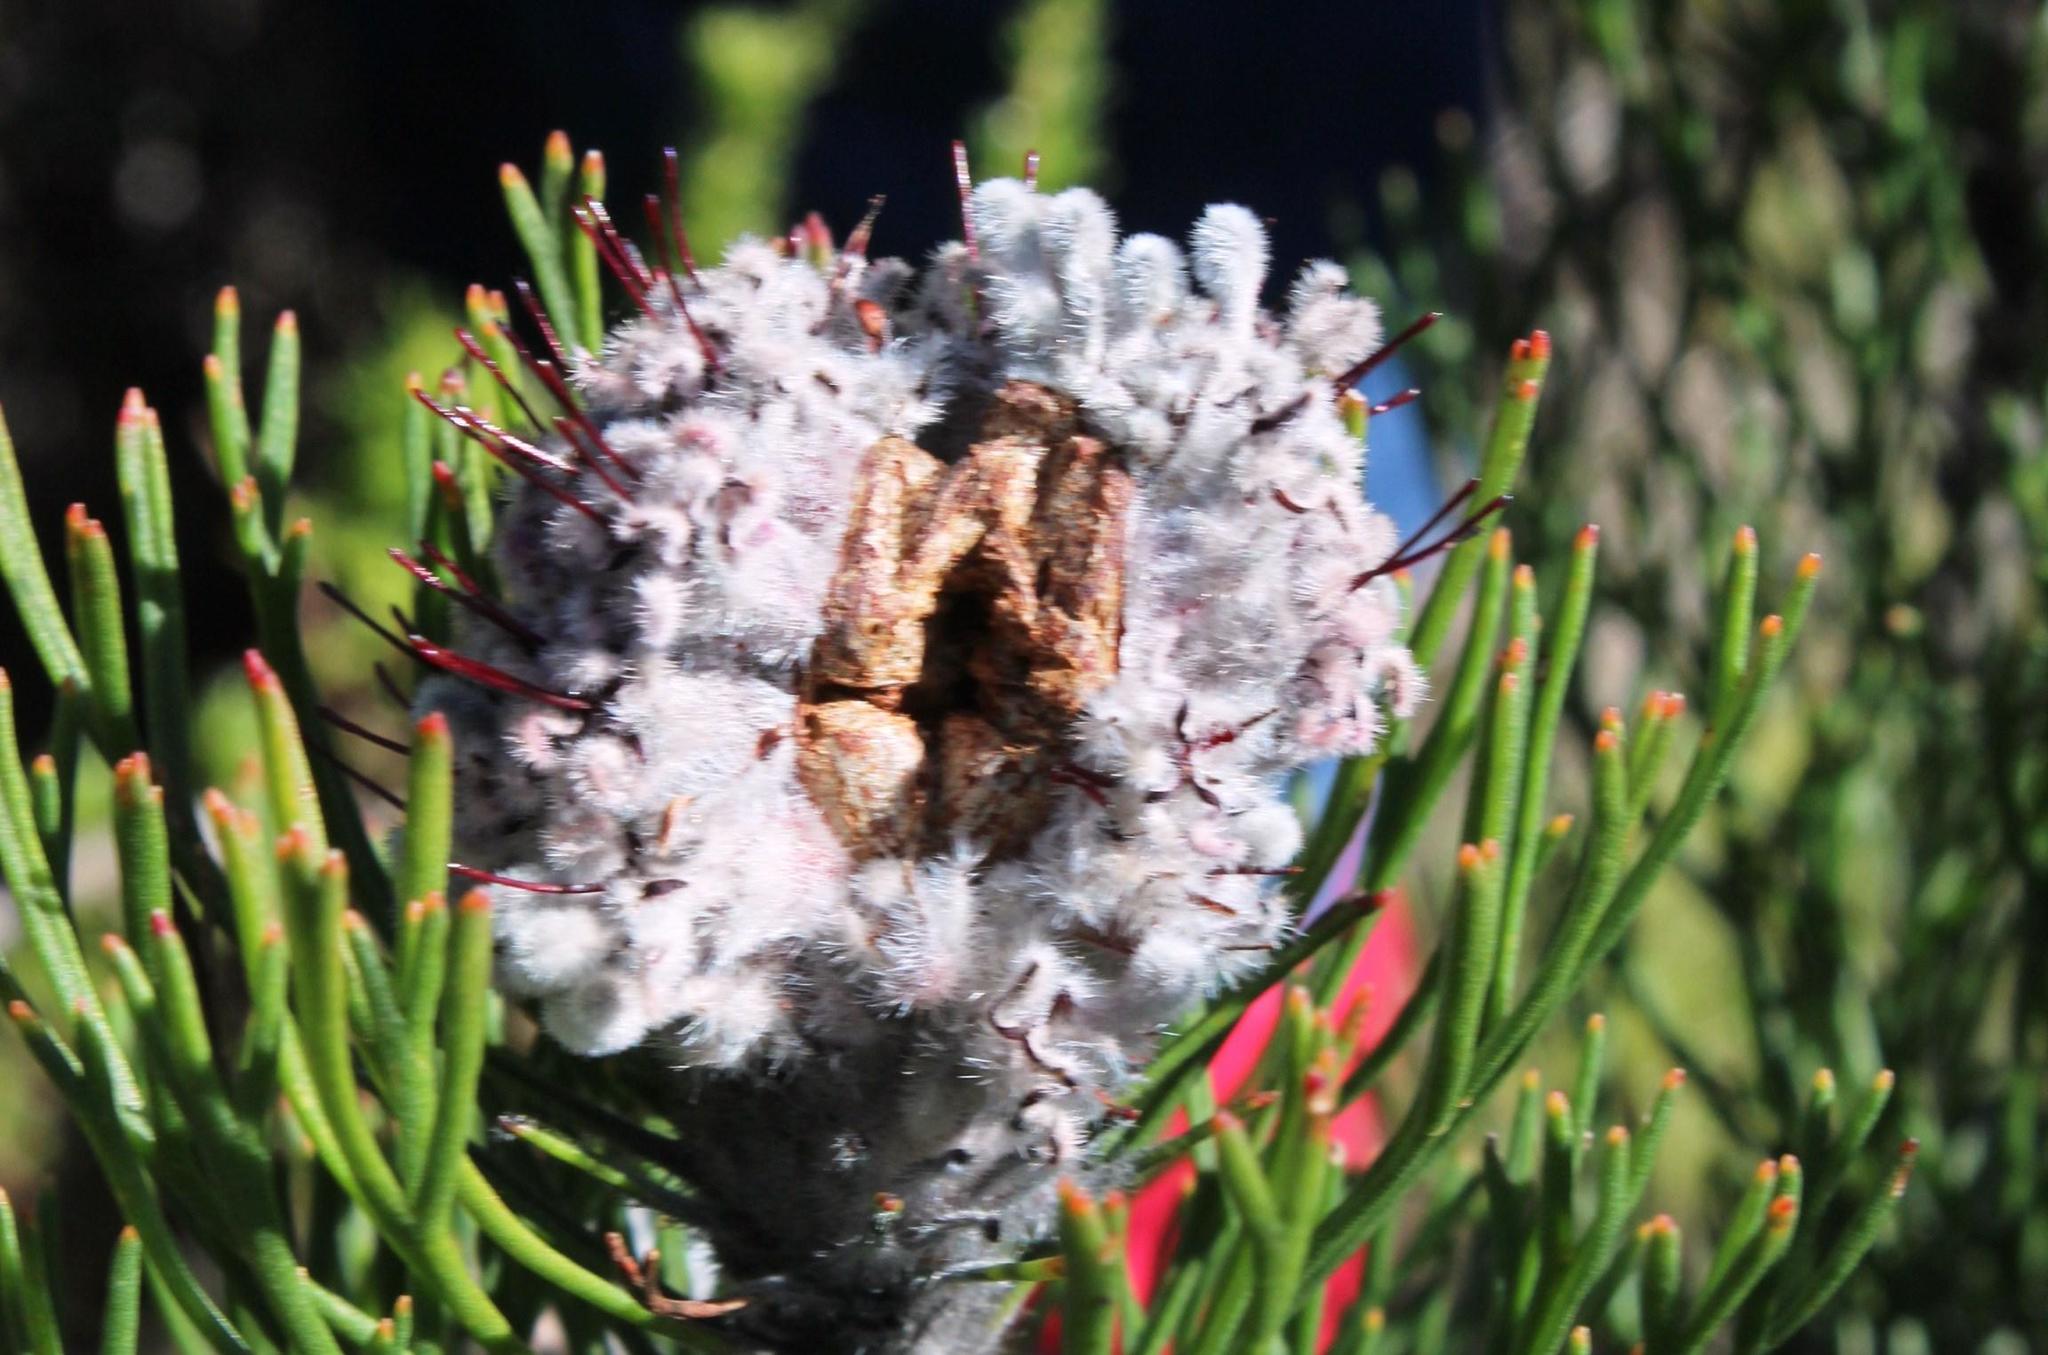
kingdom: Plantae
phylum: Tracheophyta
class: Magnoliopsida
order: Proteales
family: Proteaceae
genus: Paranomus
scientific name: Paranomus
